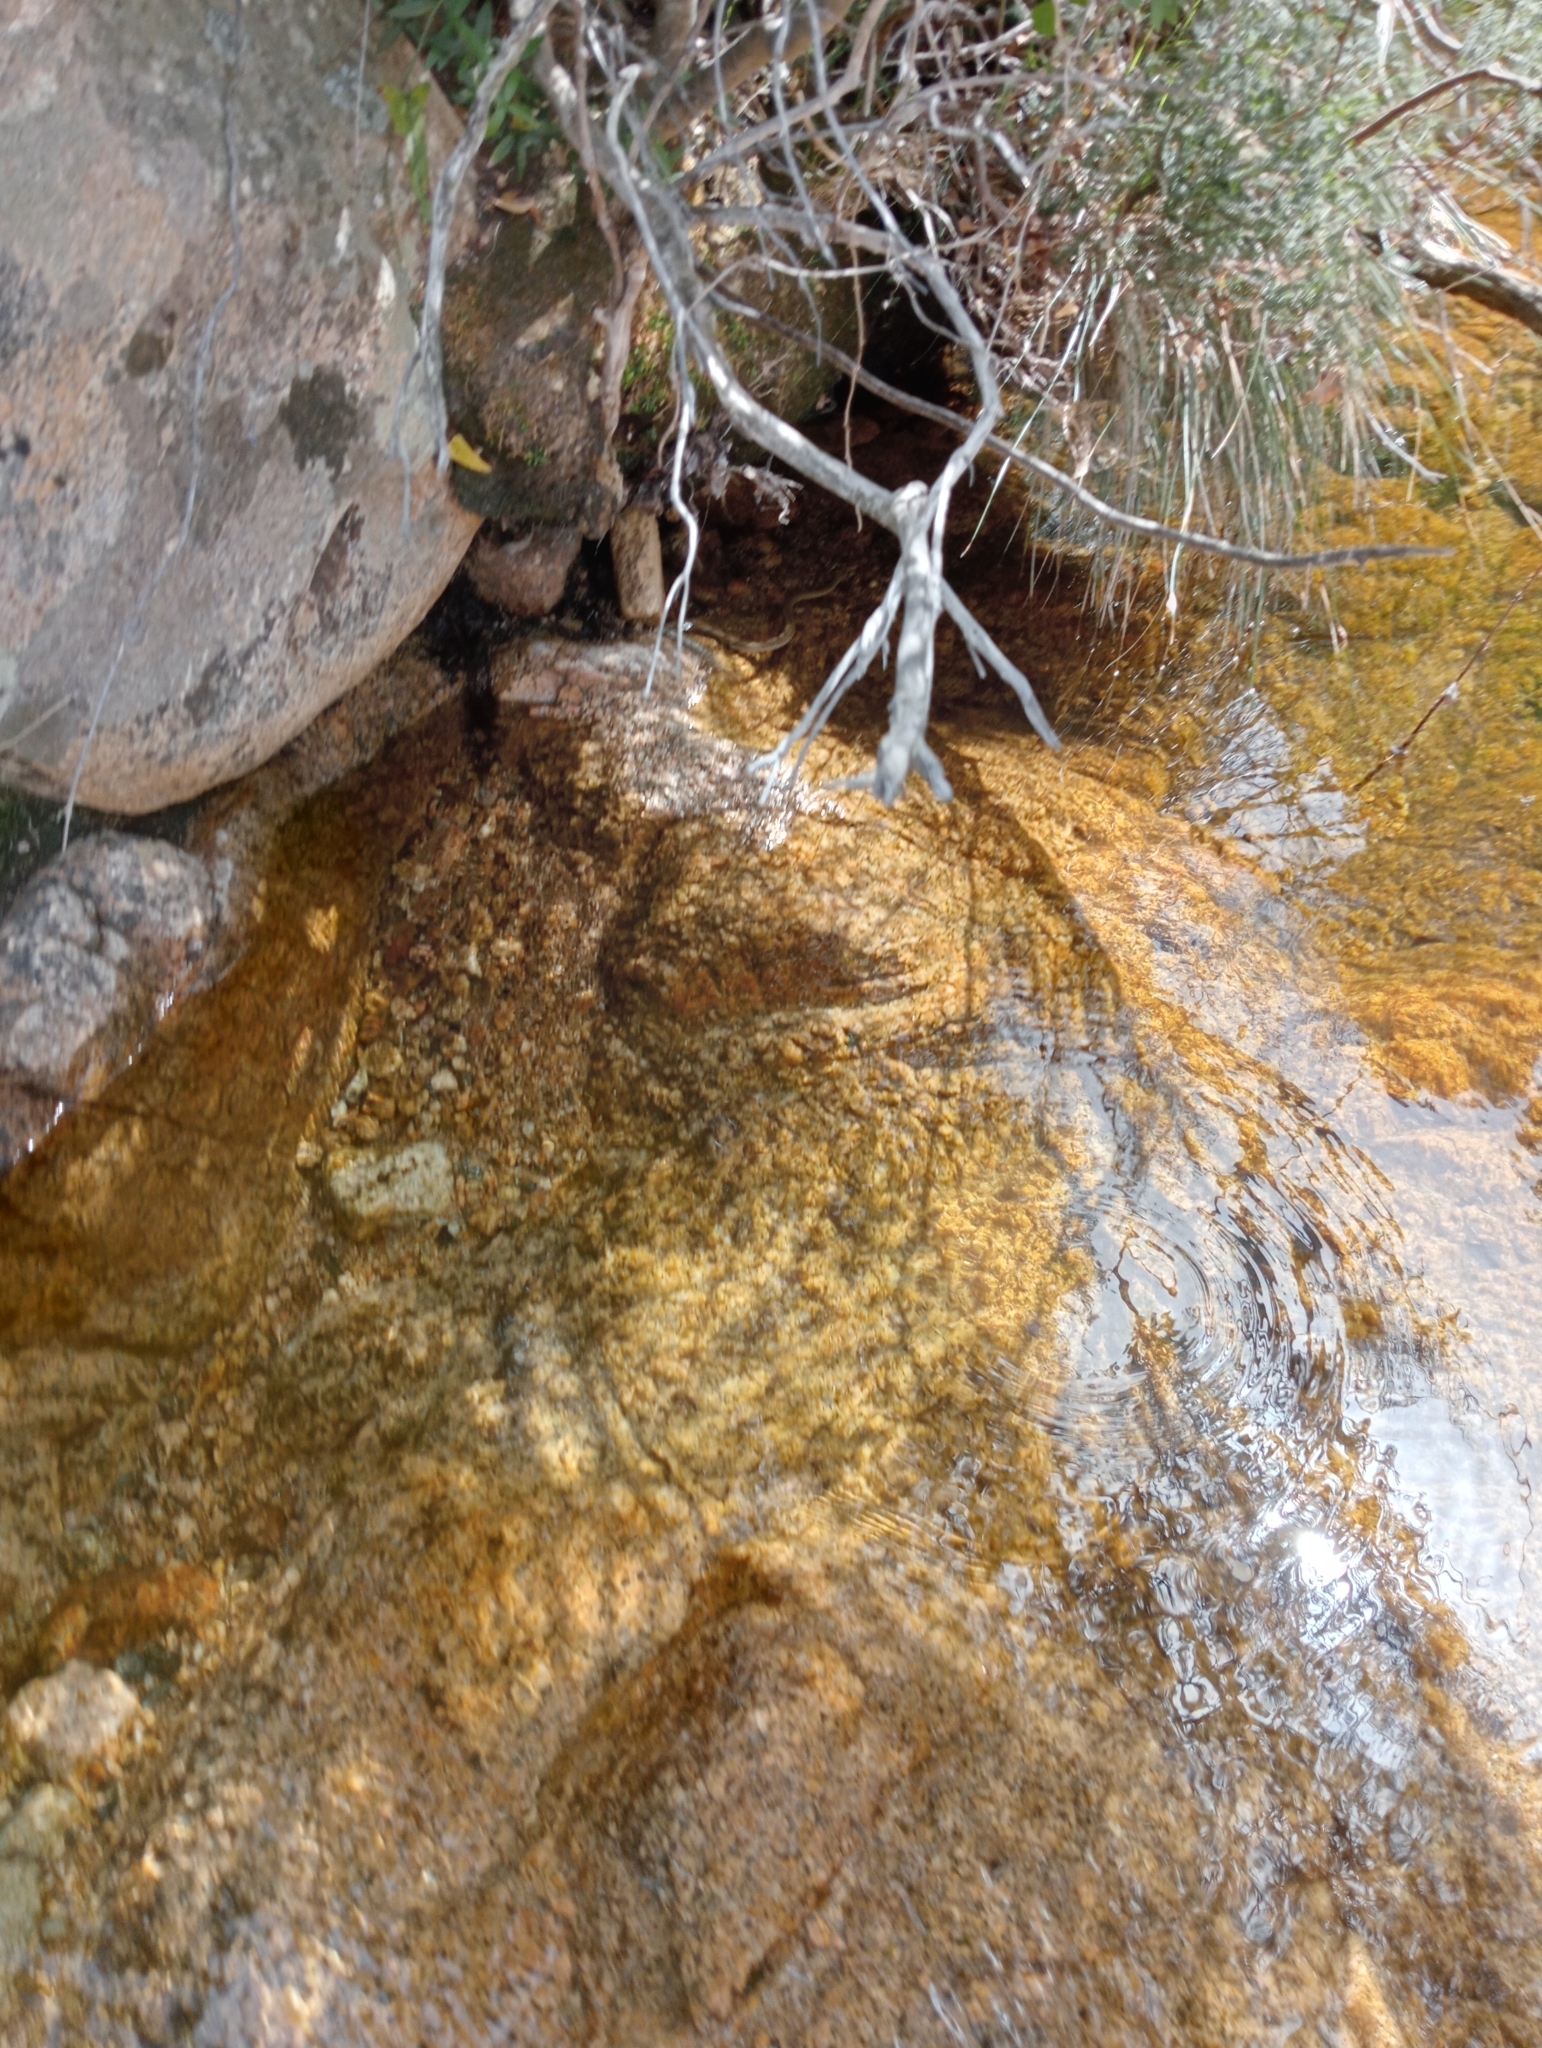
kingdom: Animalia
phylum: Chordata
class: Squamata
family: Colubridae
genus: Natrix
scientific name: Natrix maura
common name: Viperine water snake
